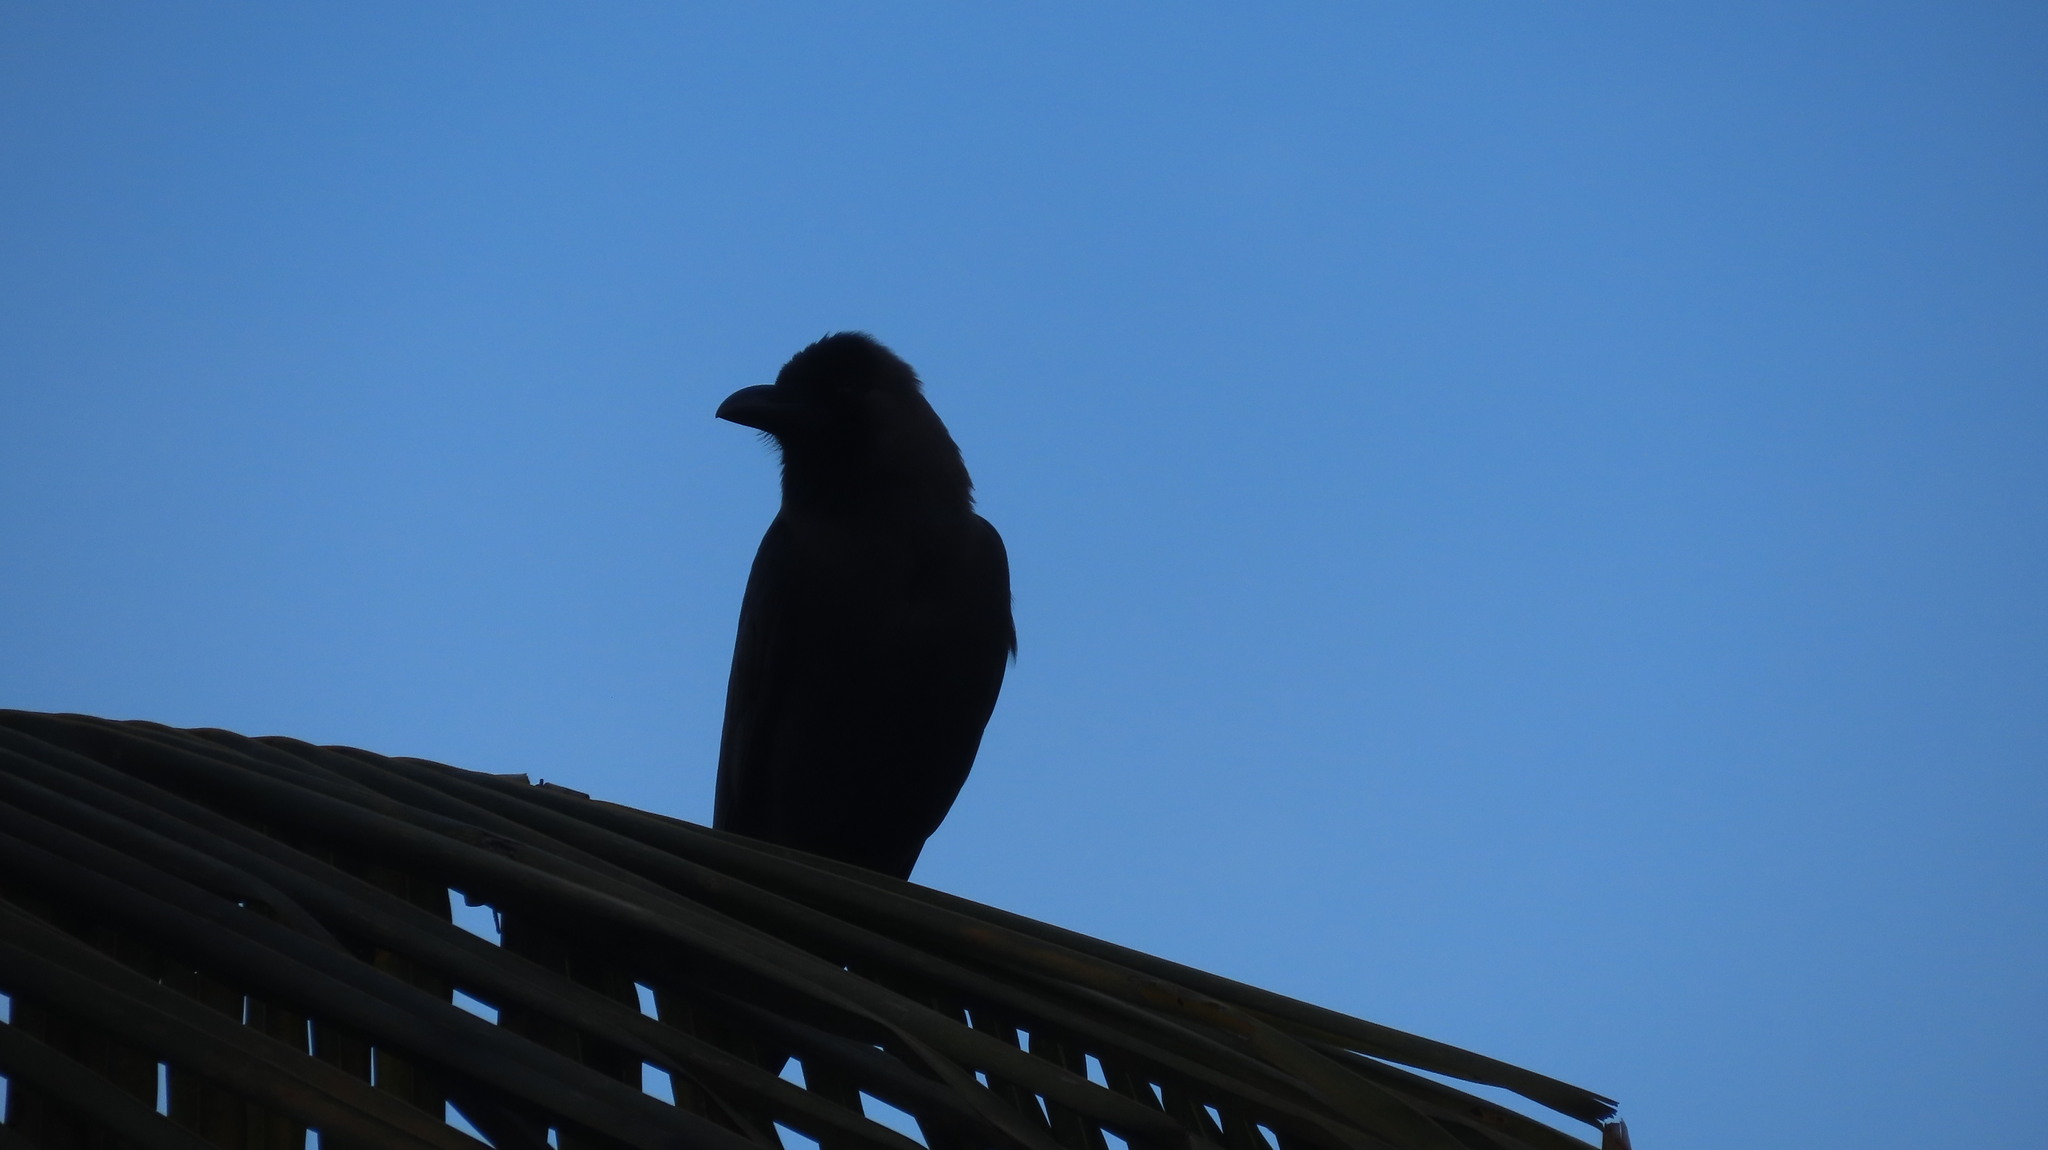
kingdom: Animalia
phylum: Chordata
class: Aves
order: Passeriformes
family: Corvidae
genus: Corvus
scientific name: Corvus splendens
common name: House crow
